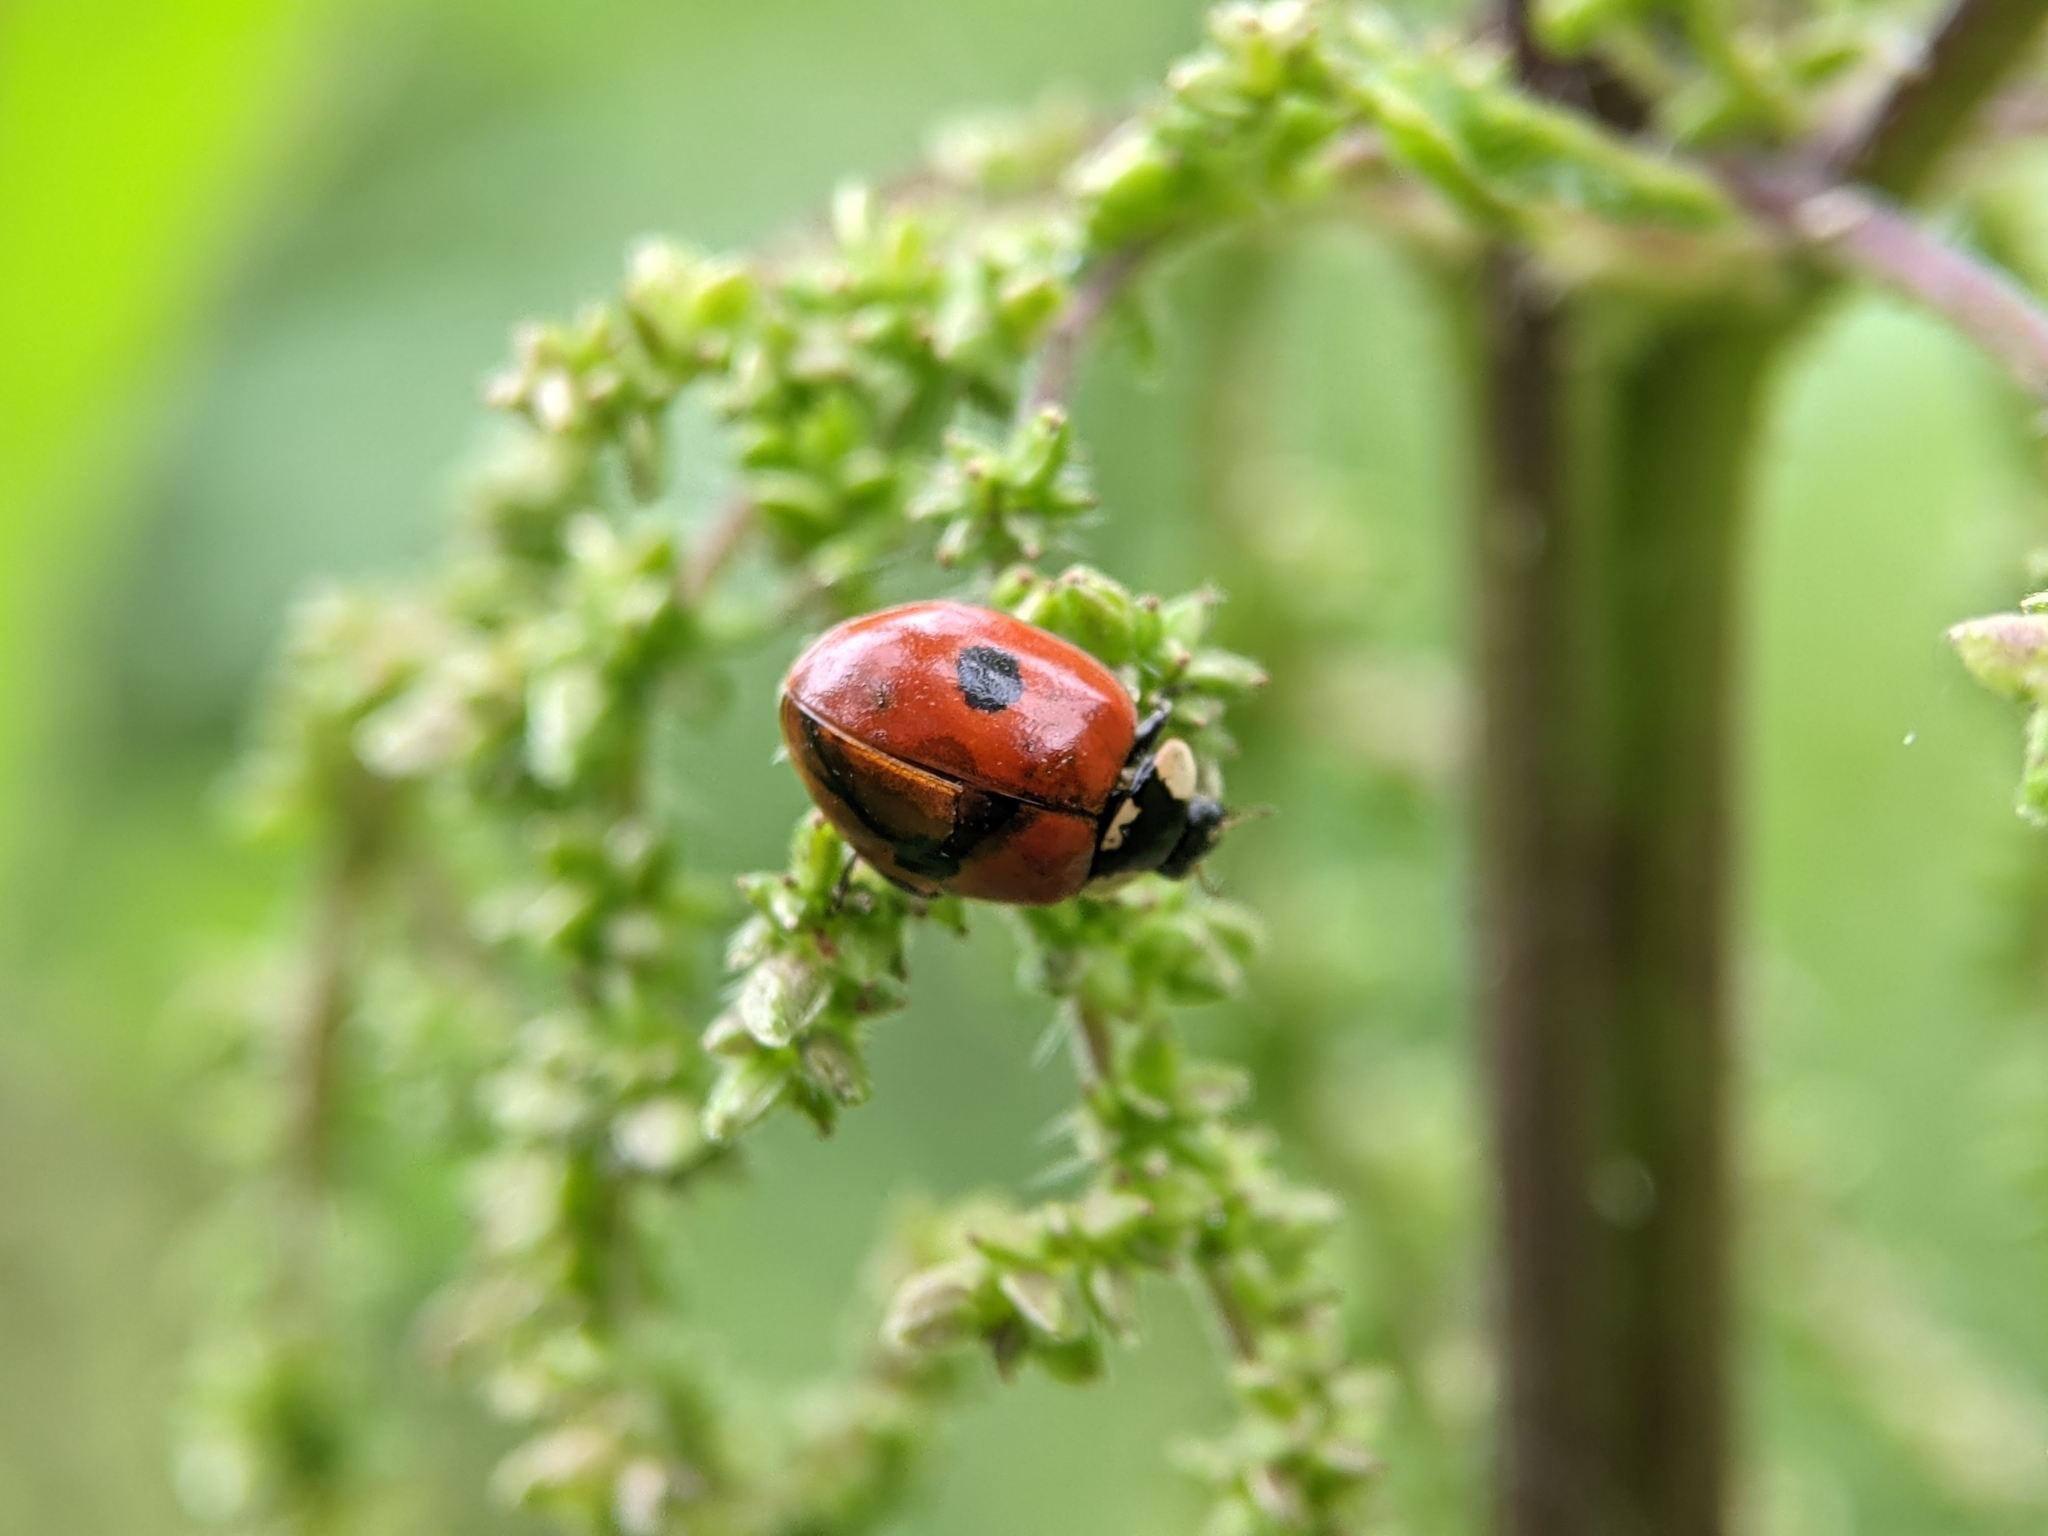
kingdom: Animalia
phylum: Arthropoda
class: Insecta
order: Coleoptera
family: Coccinellidae
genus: Adalia
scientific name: Adalia bipunctata
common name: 2-spot ladybird
